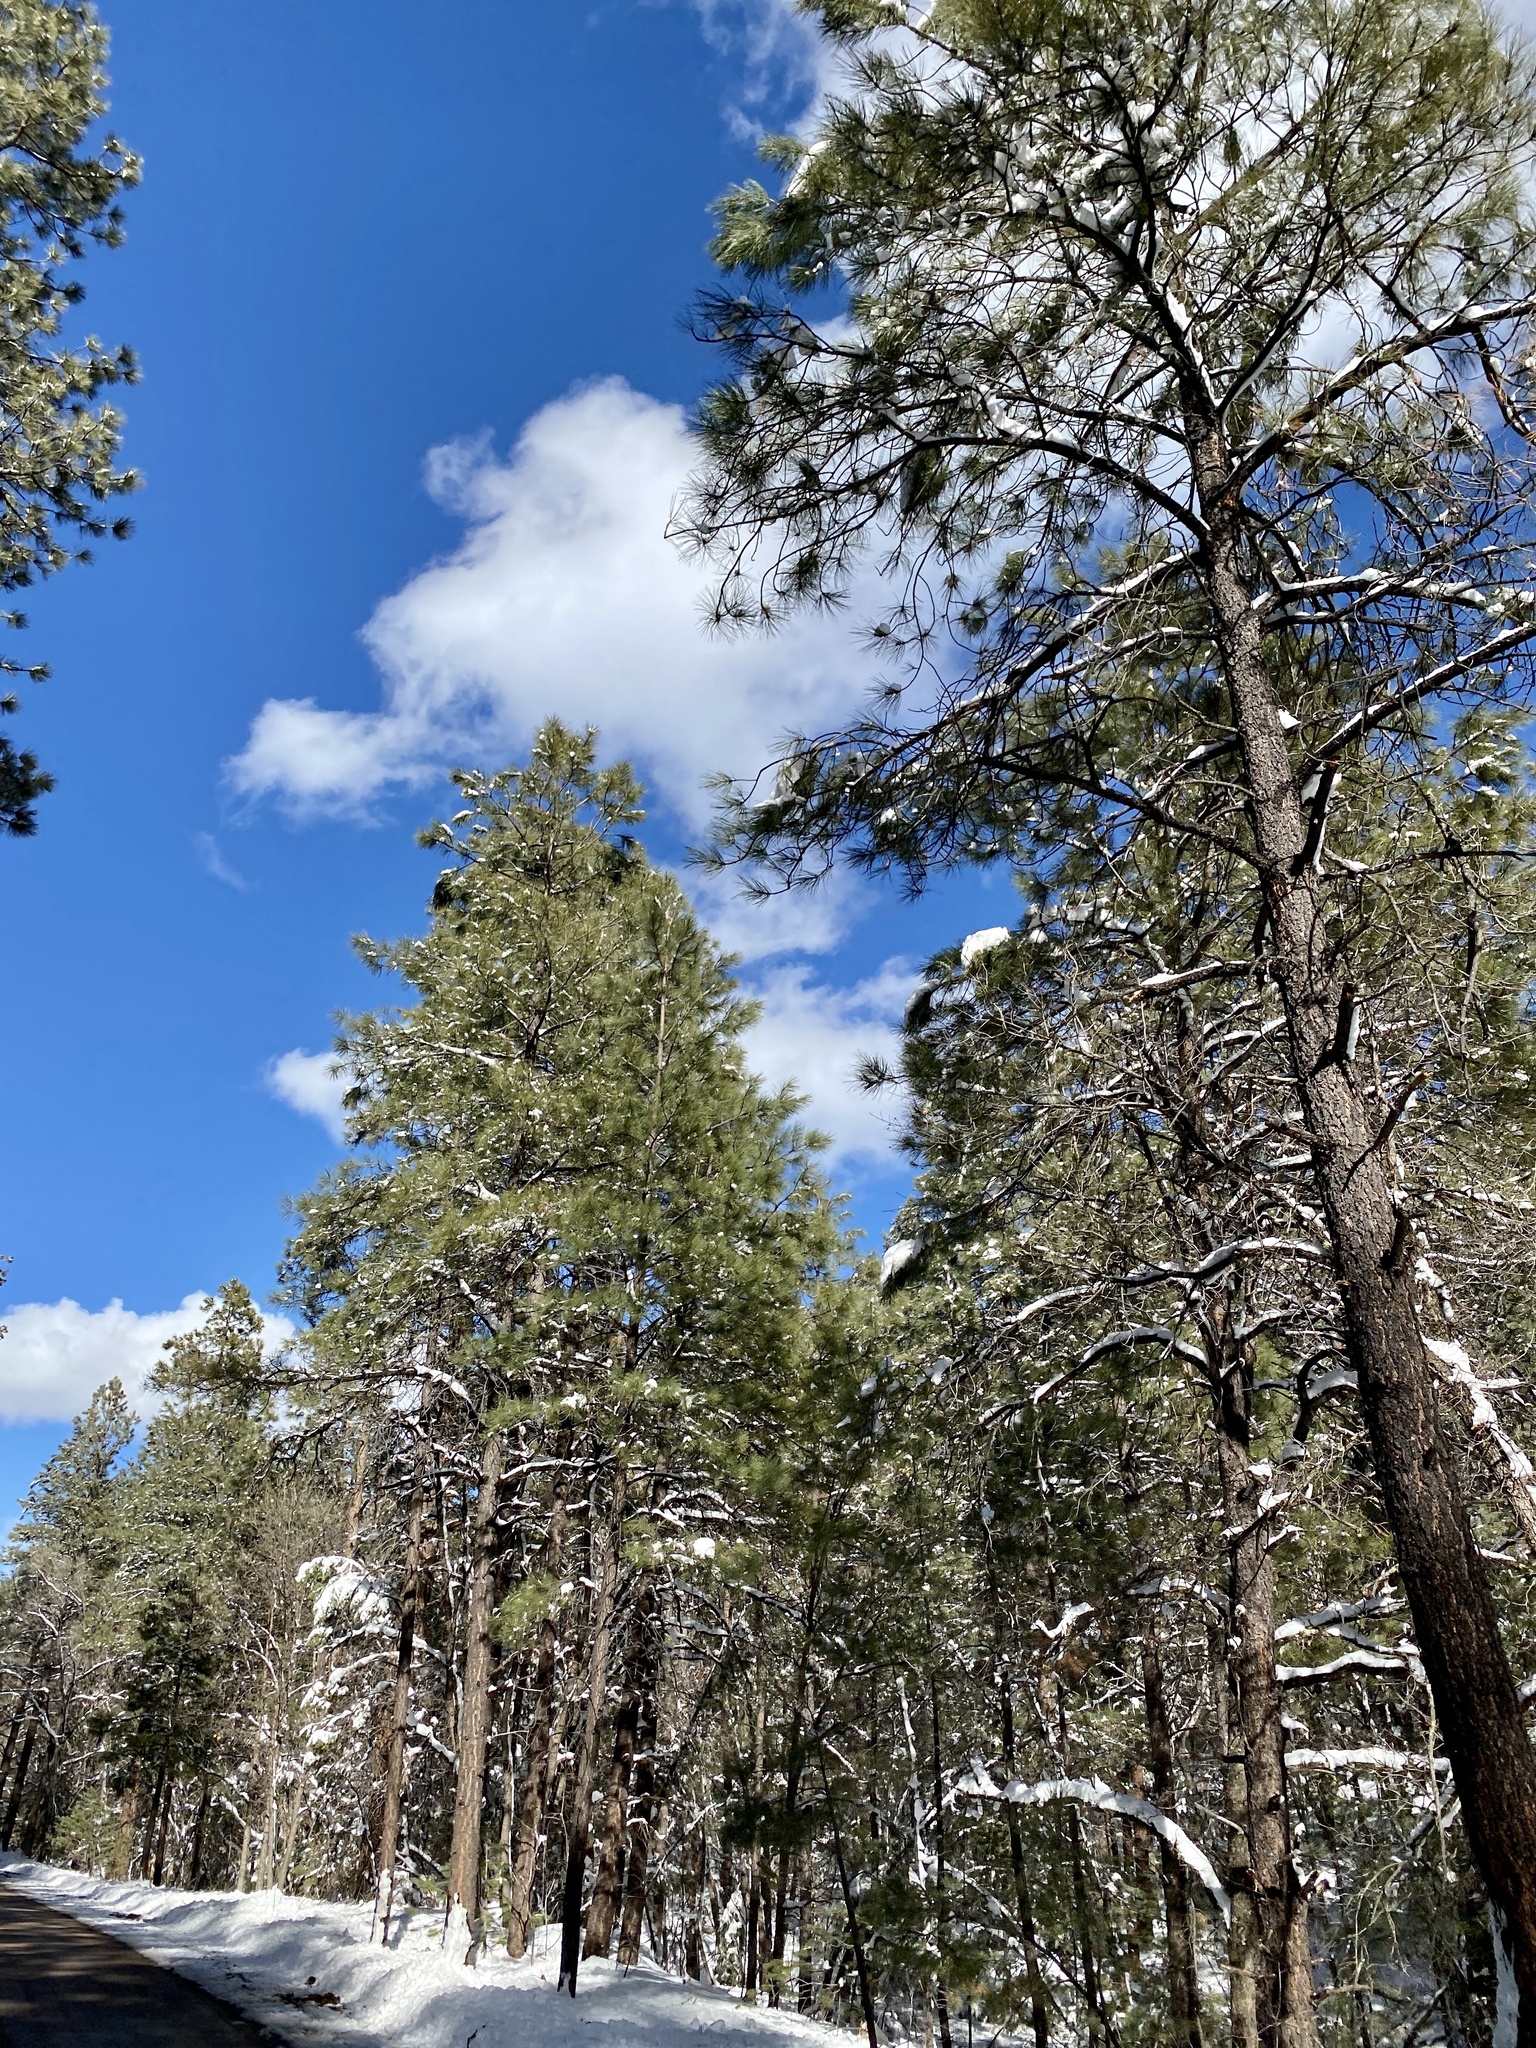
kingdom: Plantae
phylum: Tracheophyta
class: Pinopsida
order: Pinales
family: Pinaceae
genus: Pinus
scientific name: Pinus ponderosa
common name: Western yellow-pine
